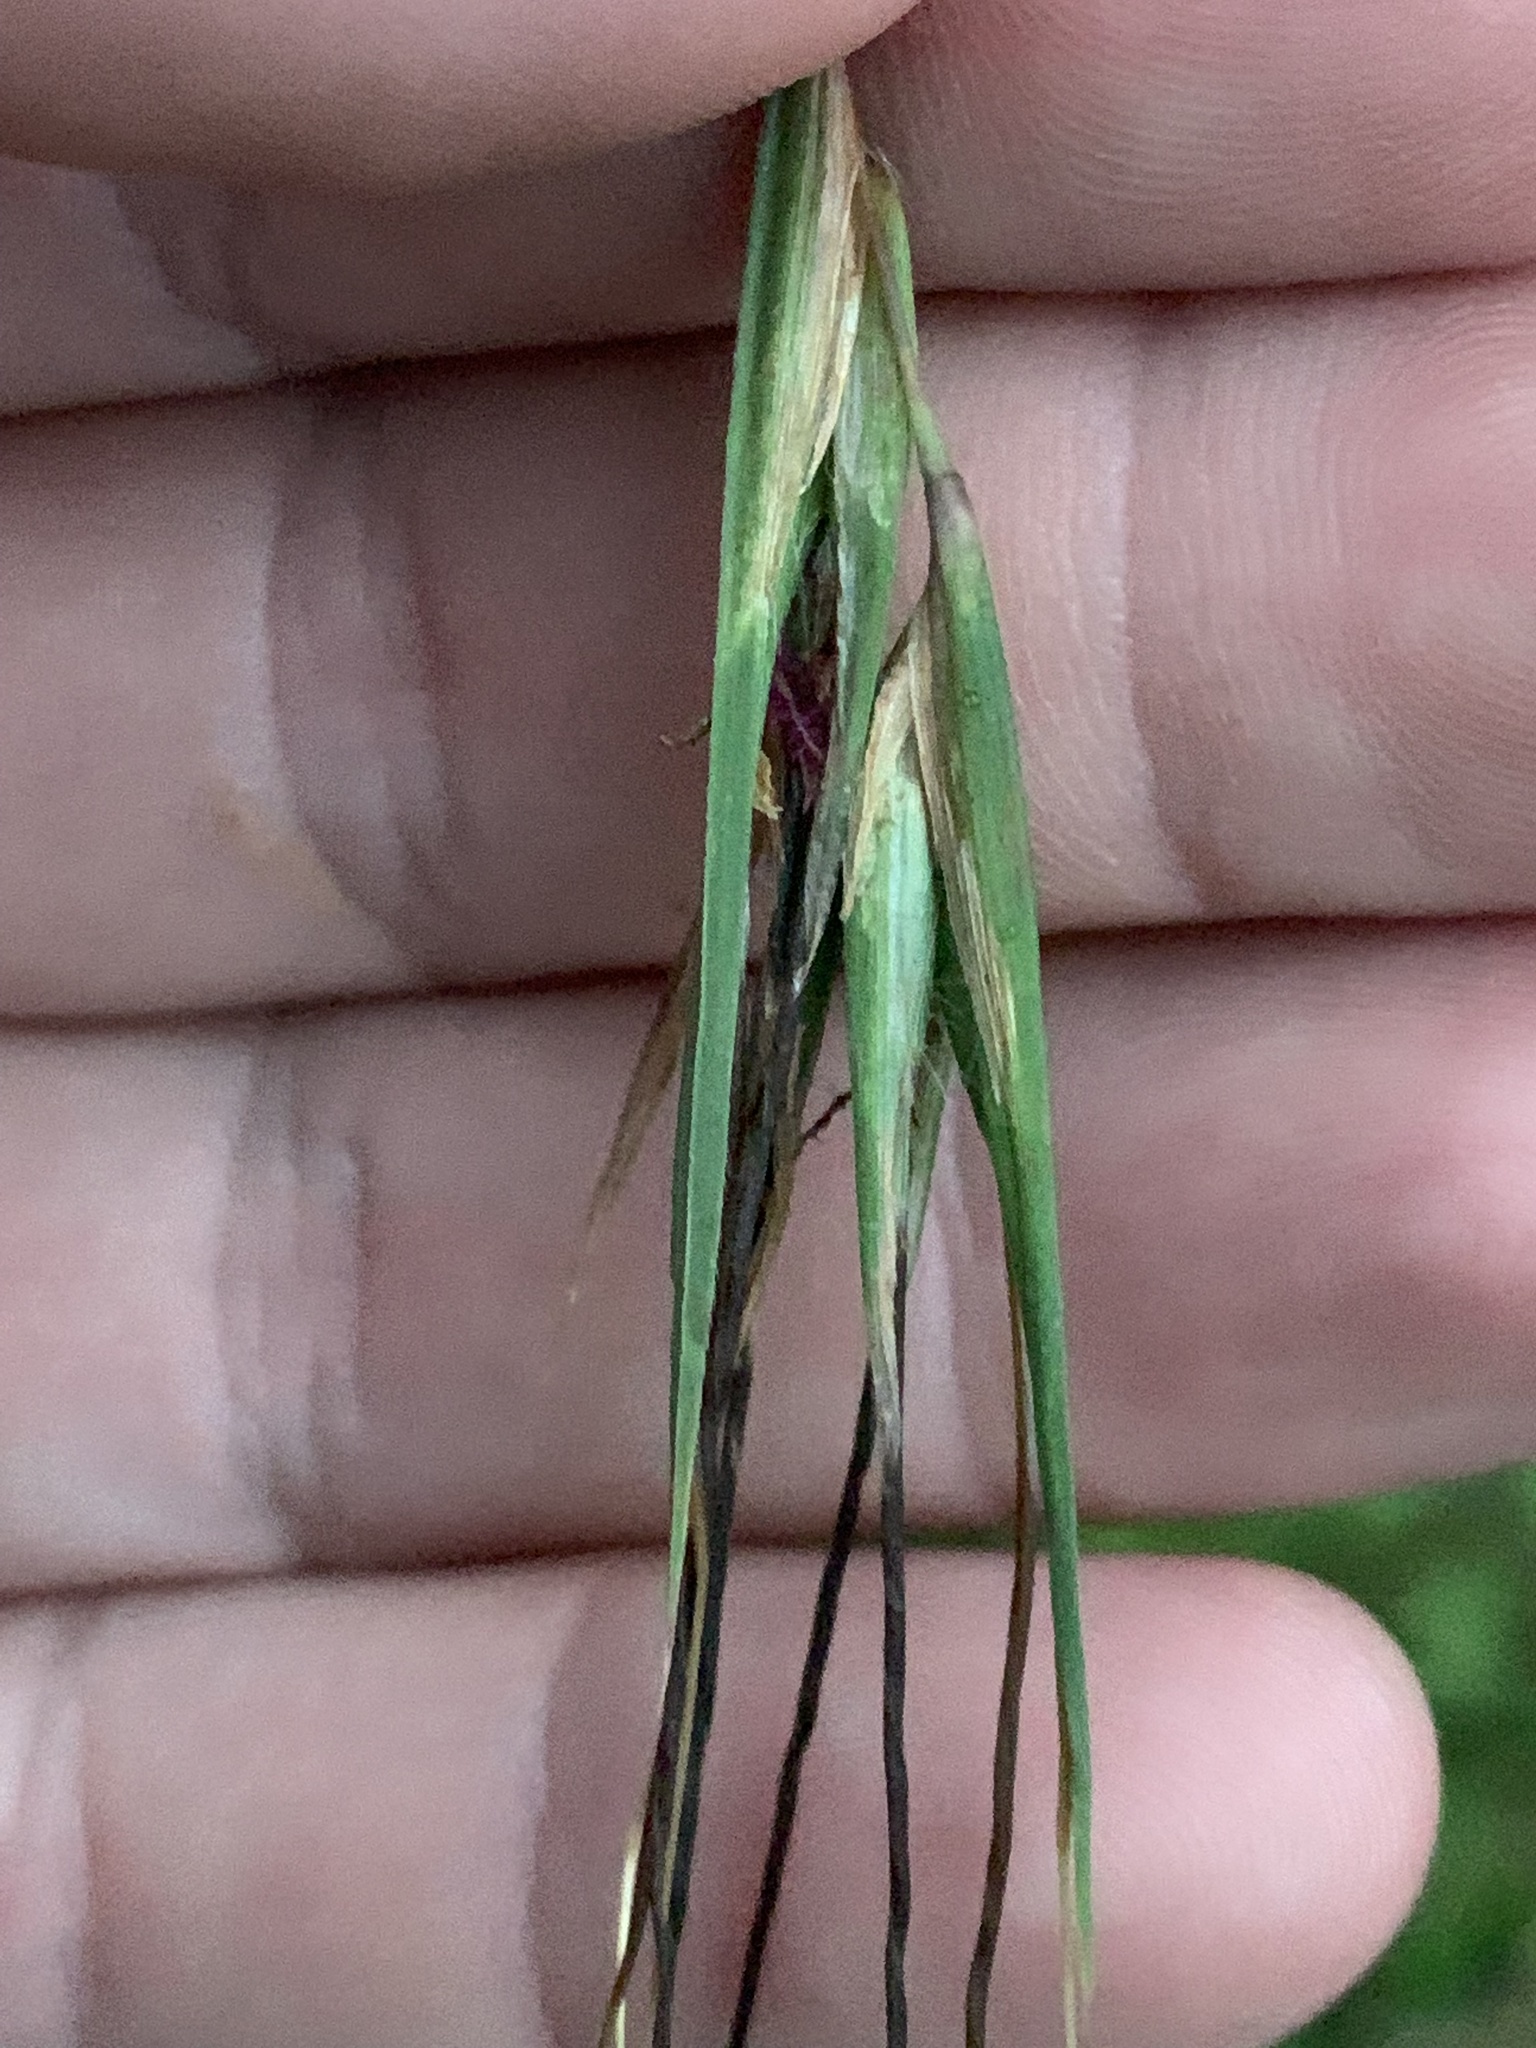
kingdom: Plantae
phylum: Tracheophyta
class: Liliopsida
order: Poales
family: Poaceae
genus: Themeda
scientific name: Themeda triandra
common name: Kangaroo grass
